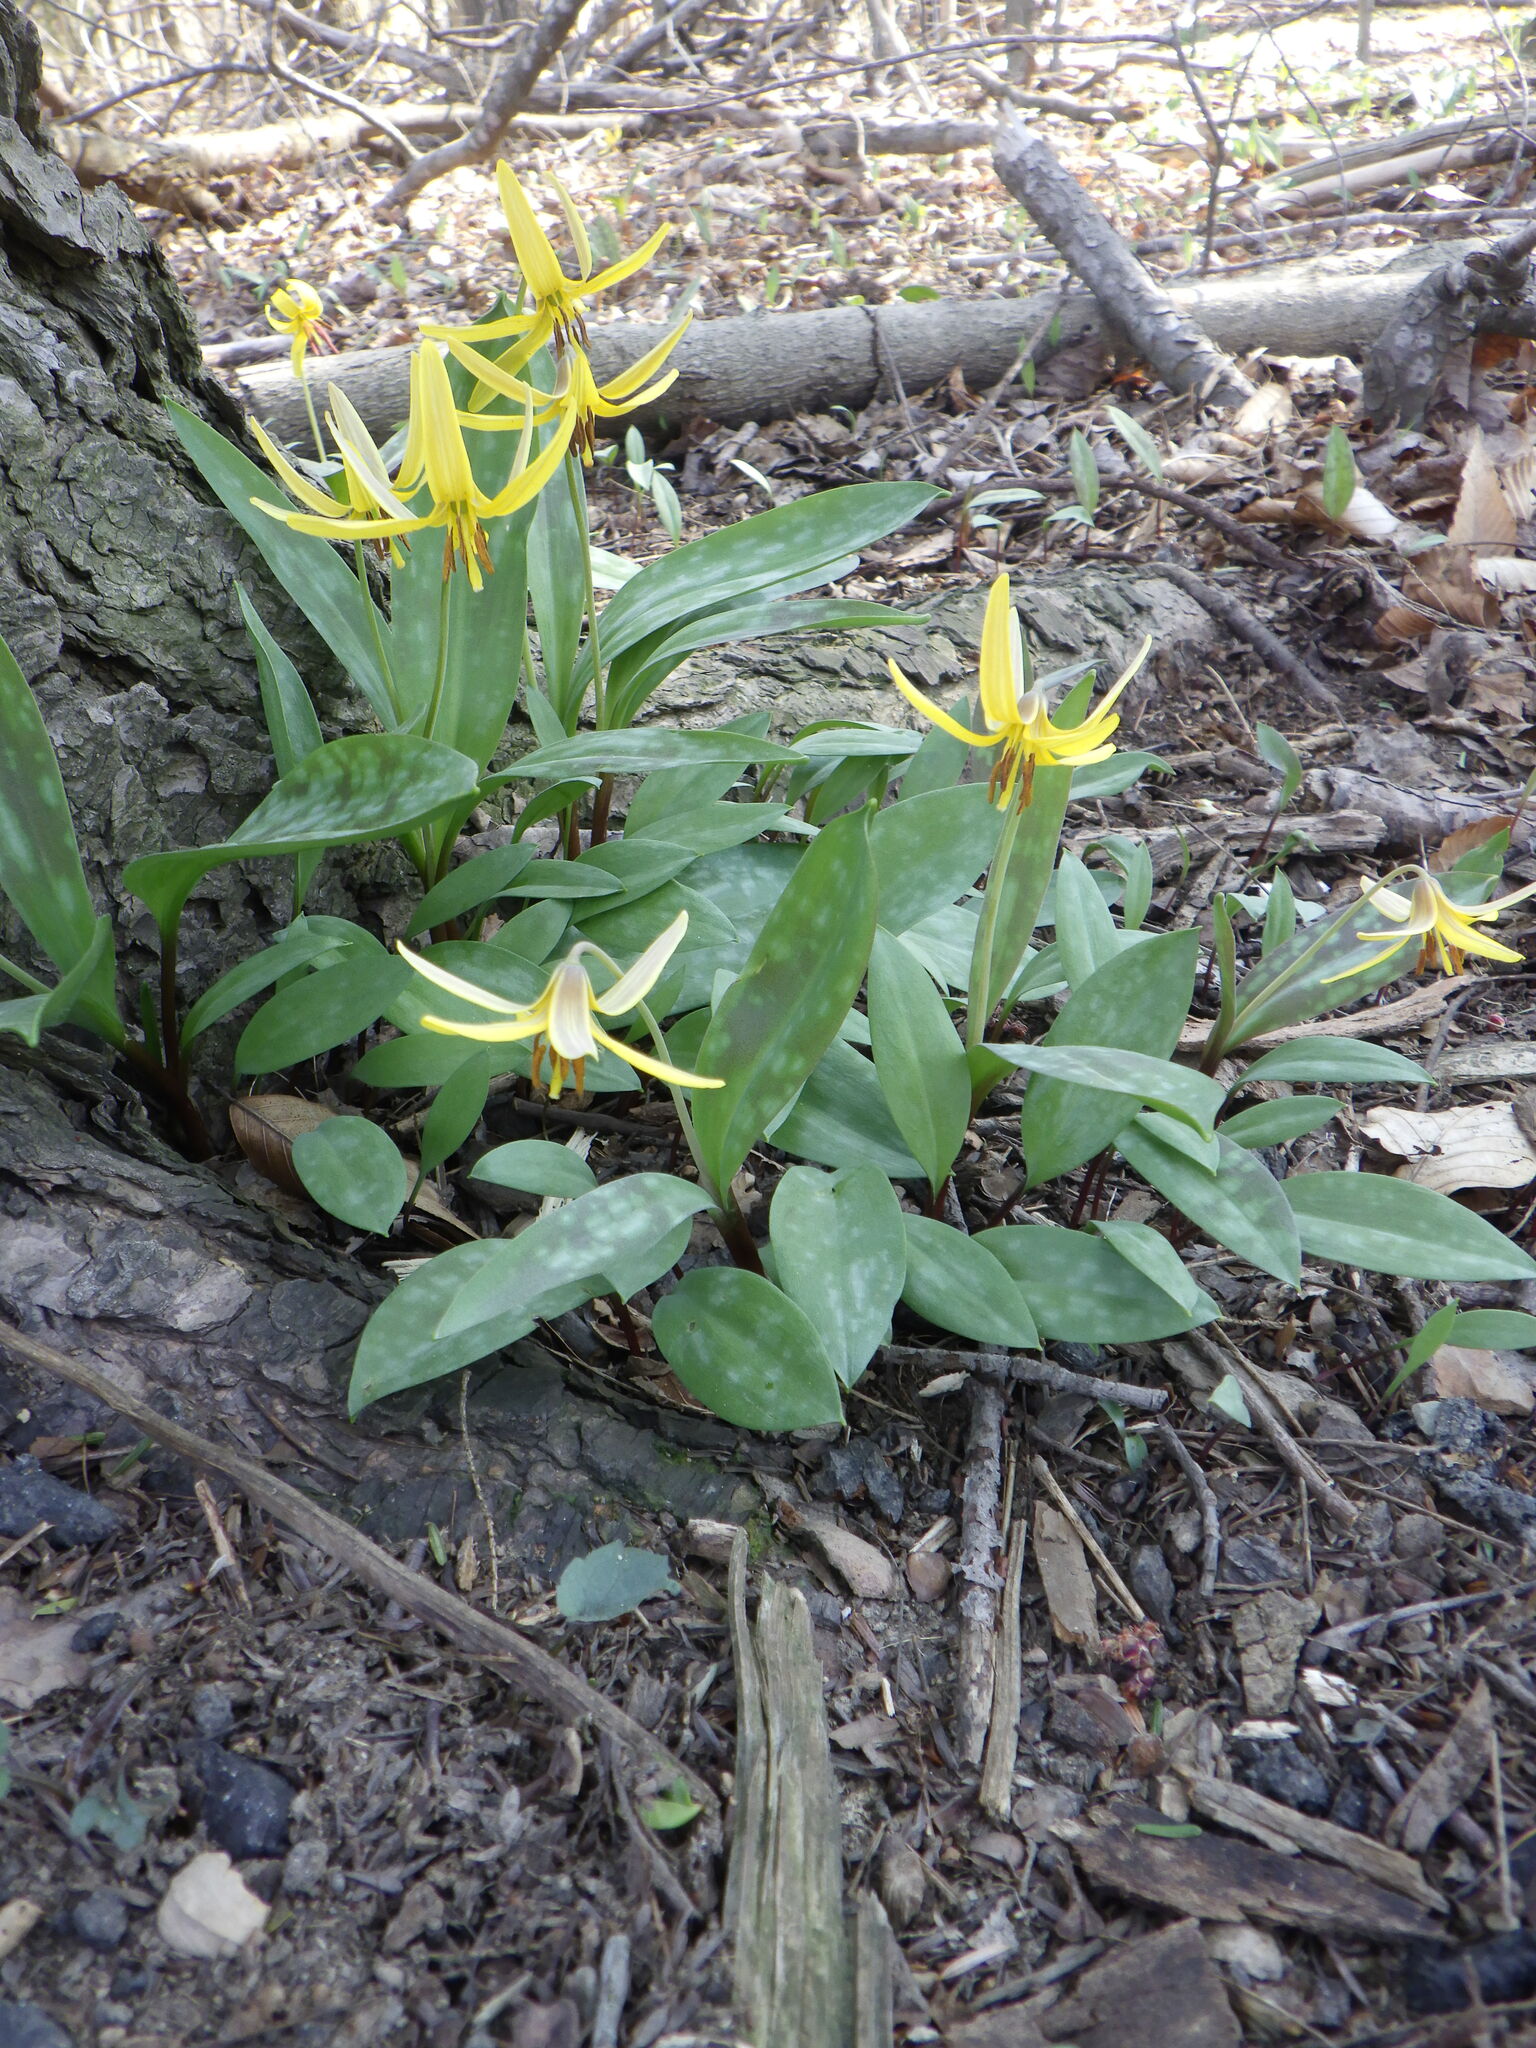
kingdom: Plantae
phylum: Tracheophyta
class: Liliopsida
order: Liliales
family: Liliaceae
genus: Erythronium
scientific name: Erythronium americanum
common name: Yellow adder's-tongue
